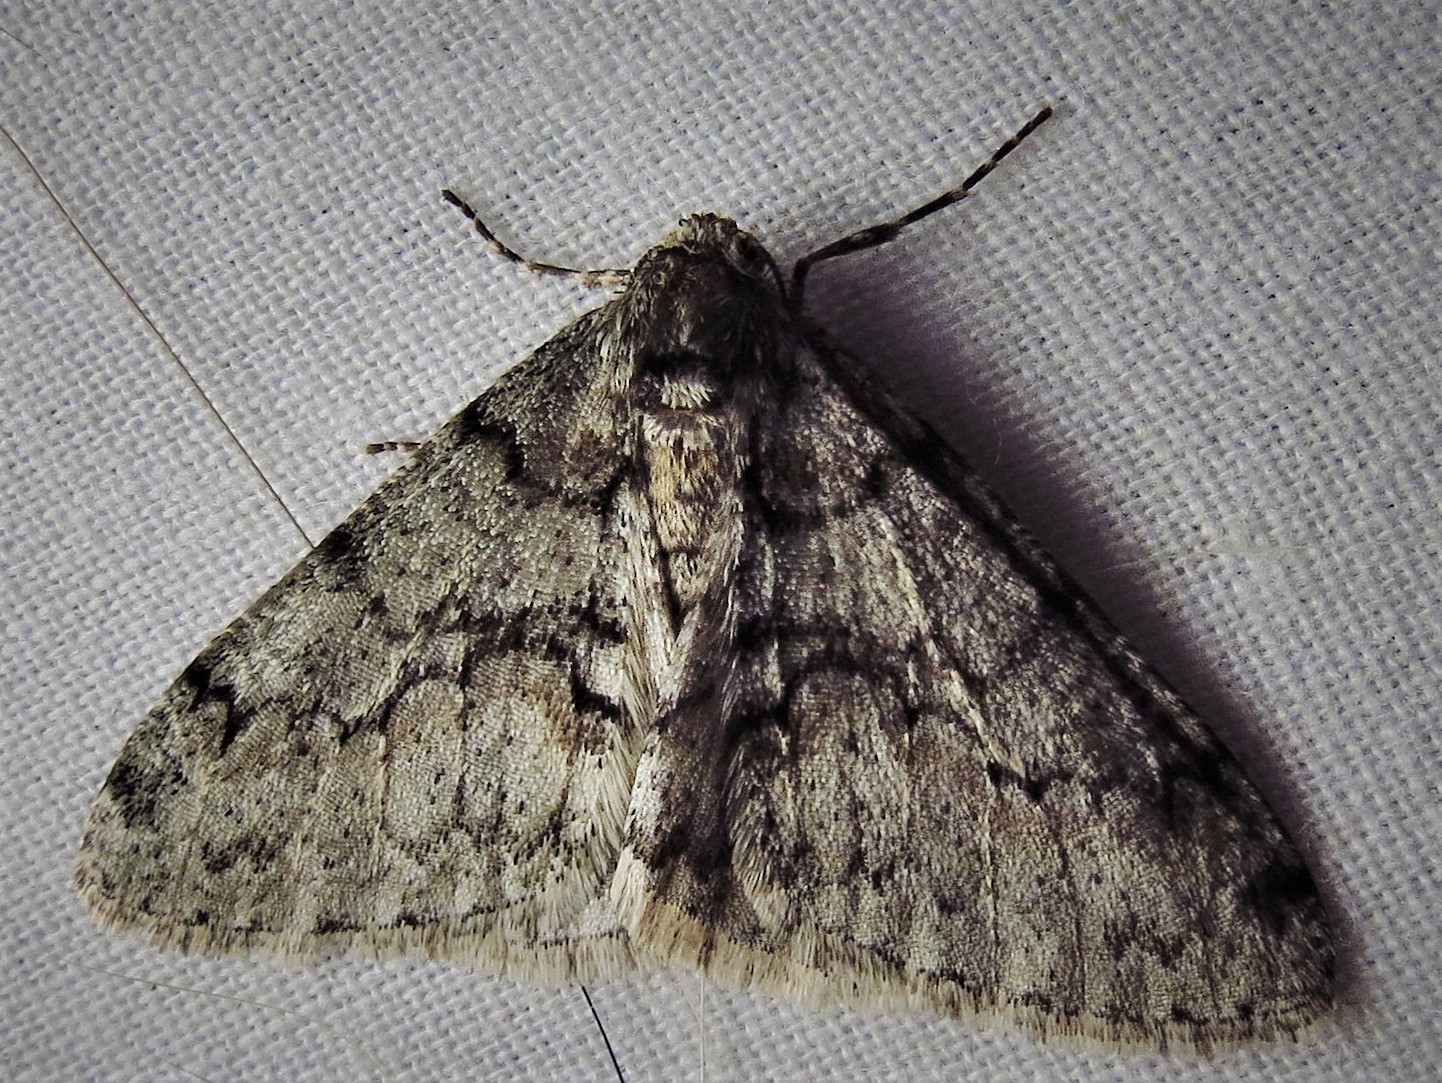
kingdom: Animalia
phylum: Arthropoda
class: Insecta
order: Lepidoptera
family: Geometridae
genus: Phigalia
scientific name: Phigalia denticulata
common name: Toothed phigalia
